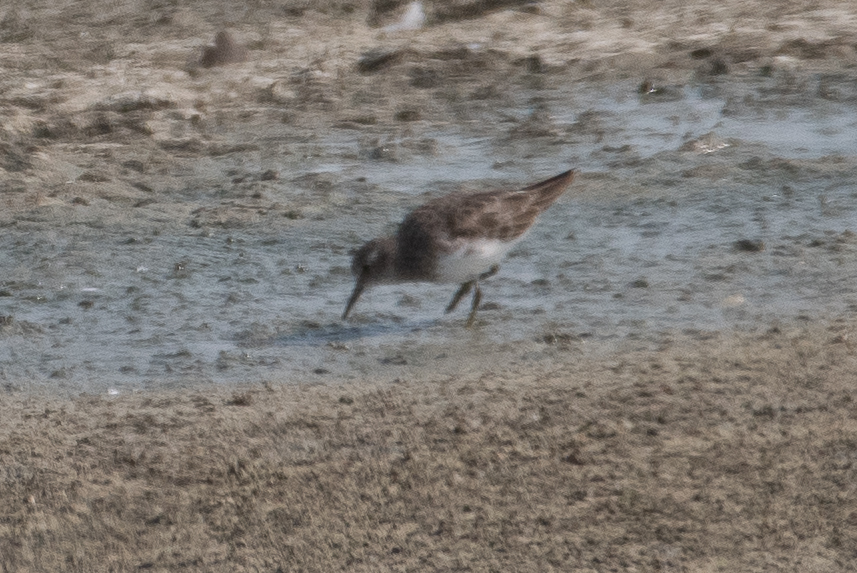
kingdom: Animalia
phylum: Chordata
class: Aves
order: Charadriiformes
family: Scolopacidae
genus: Calidris
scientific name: Calidris minutilla
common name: Least sandpiper
